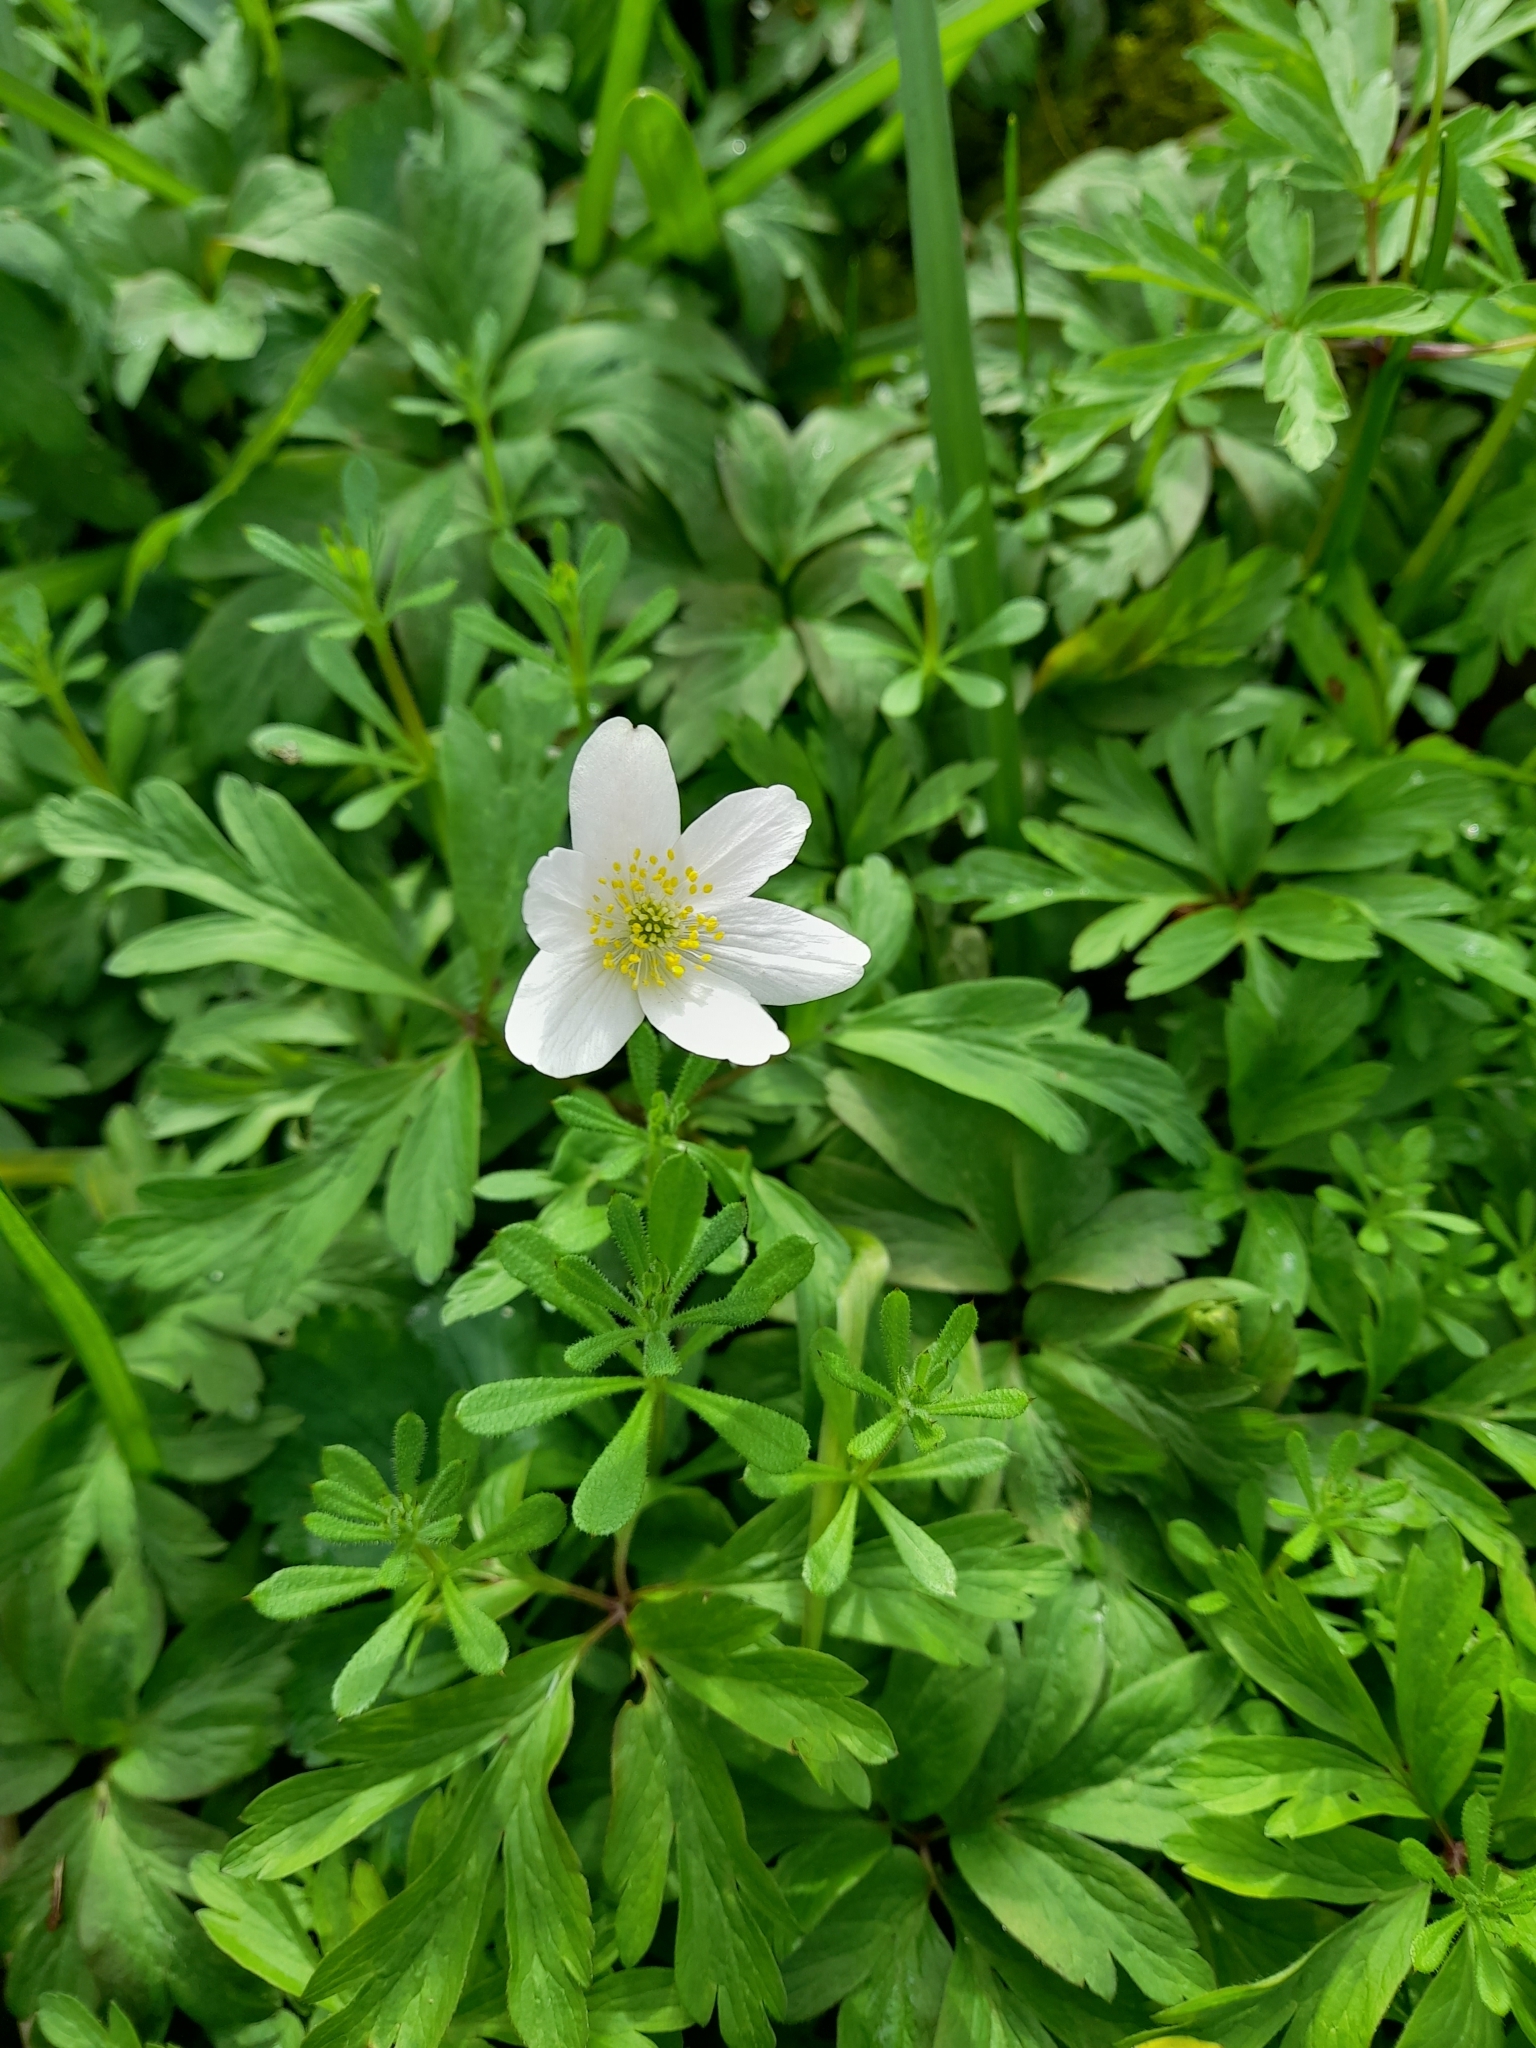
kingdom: Plantae
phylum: Tracheophyta
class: Magnoliopsida
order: Ranunculales
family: Ranunculaceae
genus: Anemone
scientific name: Anemone nemorosa
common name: Wood anemone
